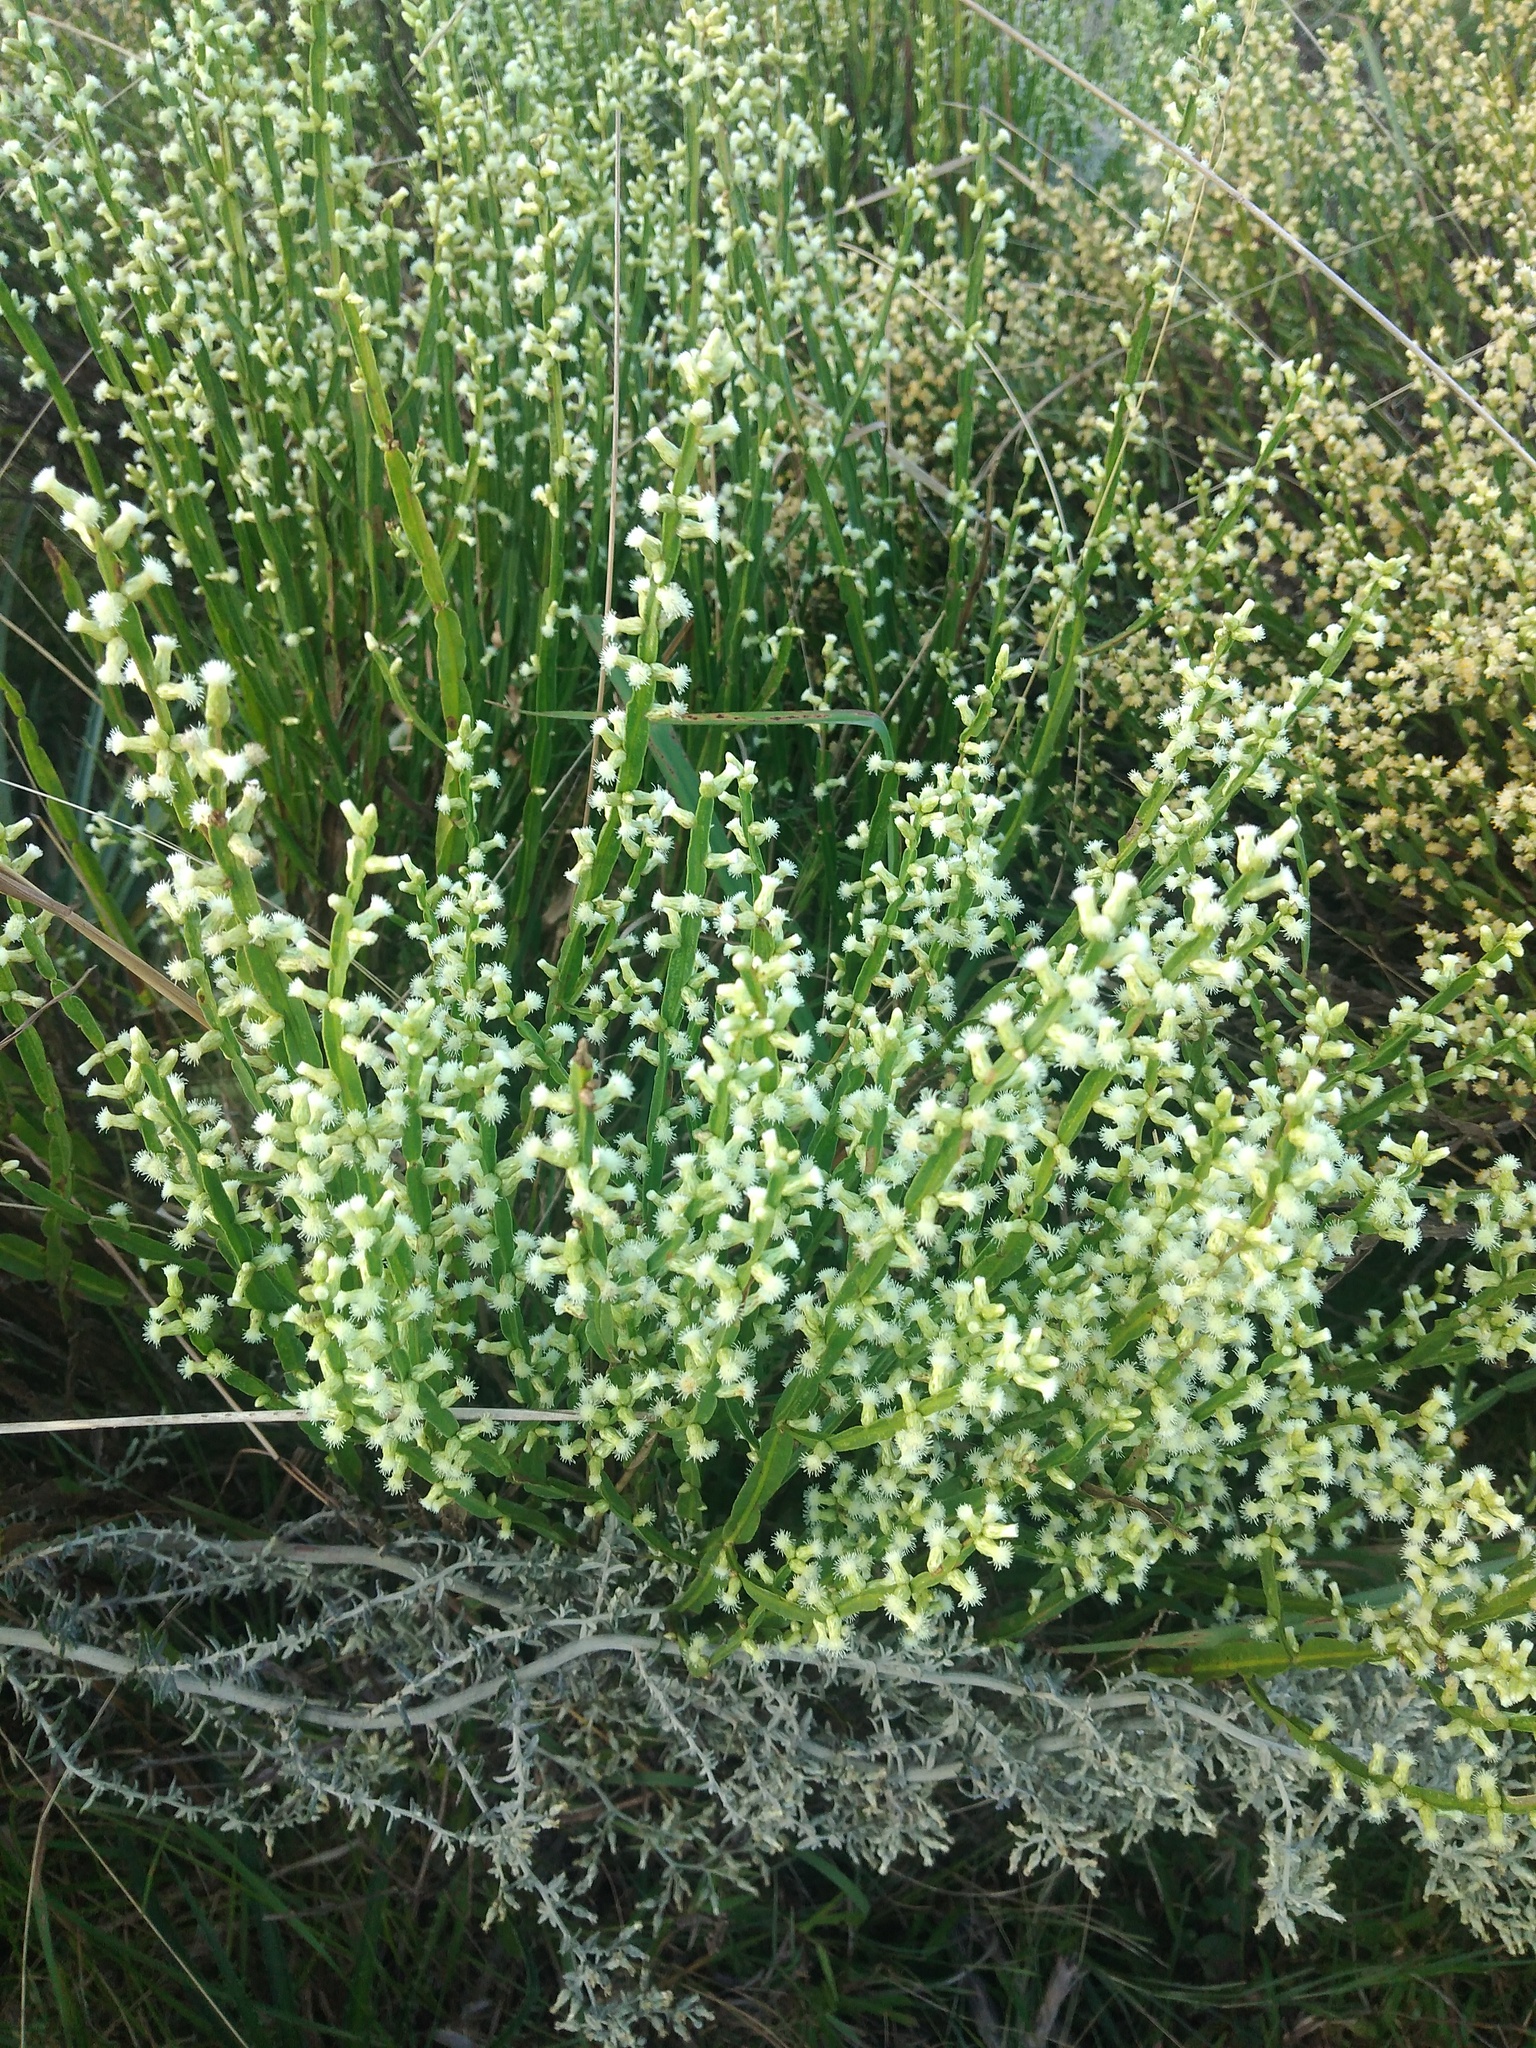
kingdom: Plantae
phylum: Tracheophyta
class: Magnoliopsida
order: Asterales
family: Asteraceae
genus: Baccharis
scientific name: Baccharis trimera
